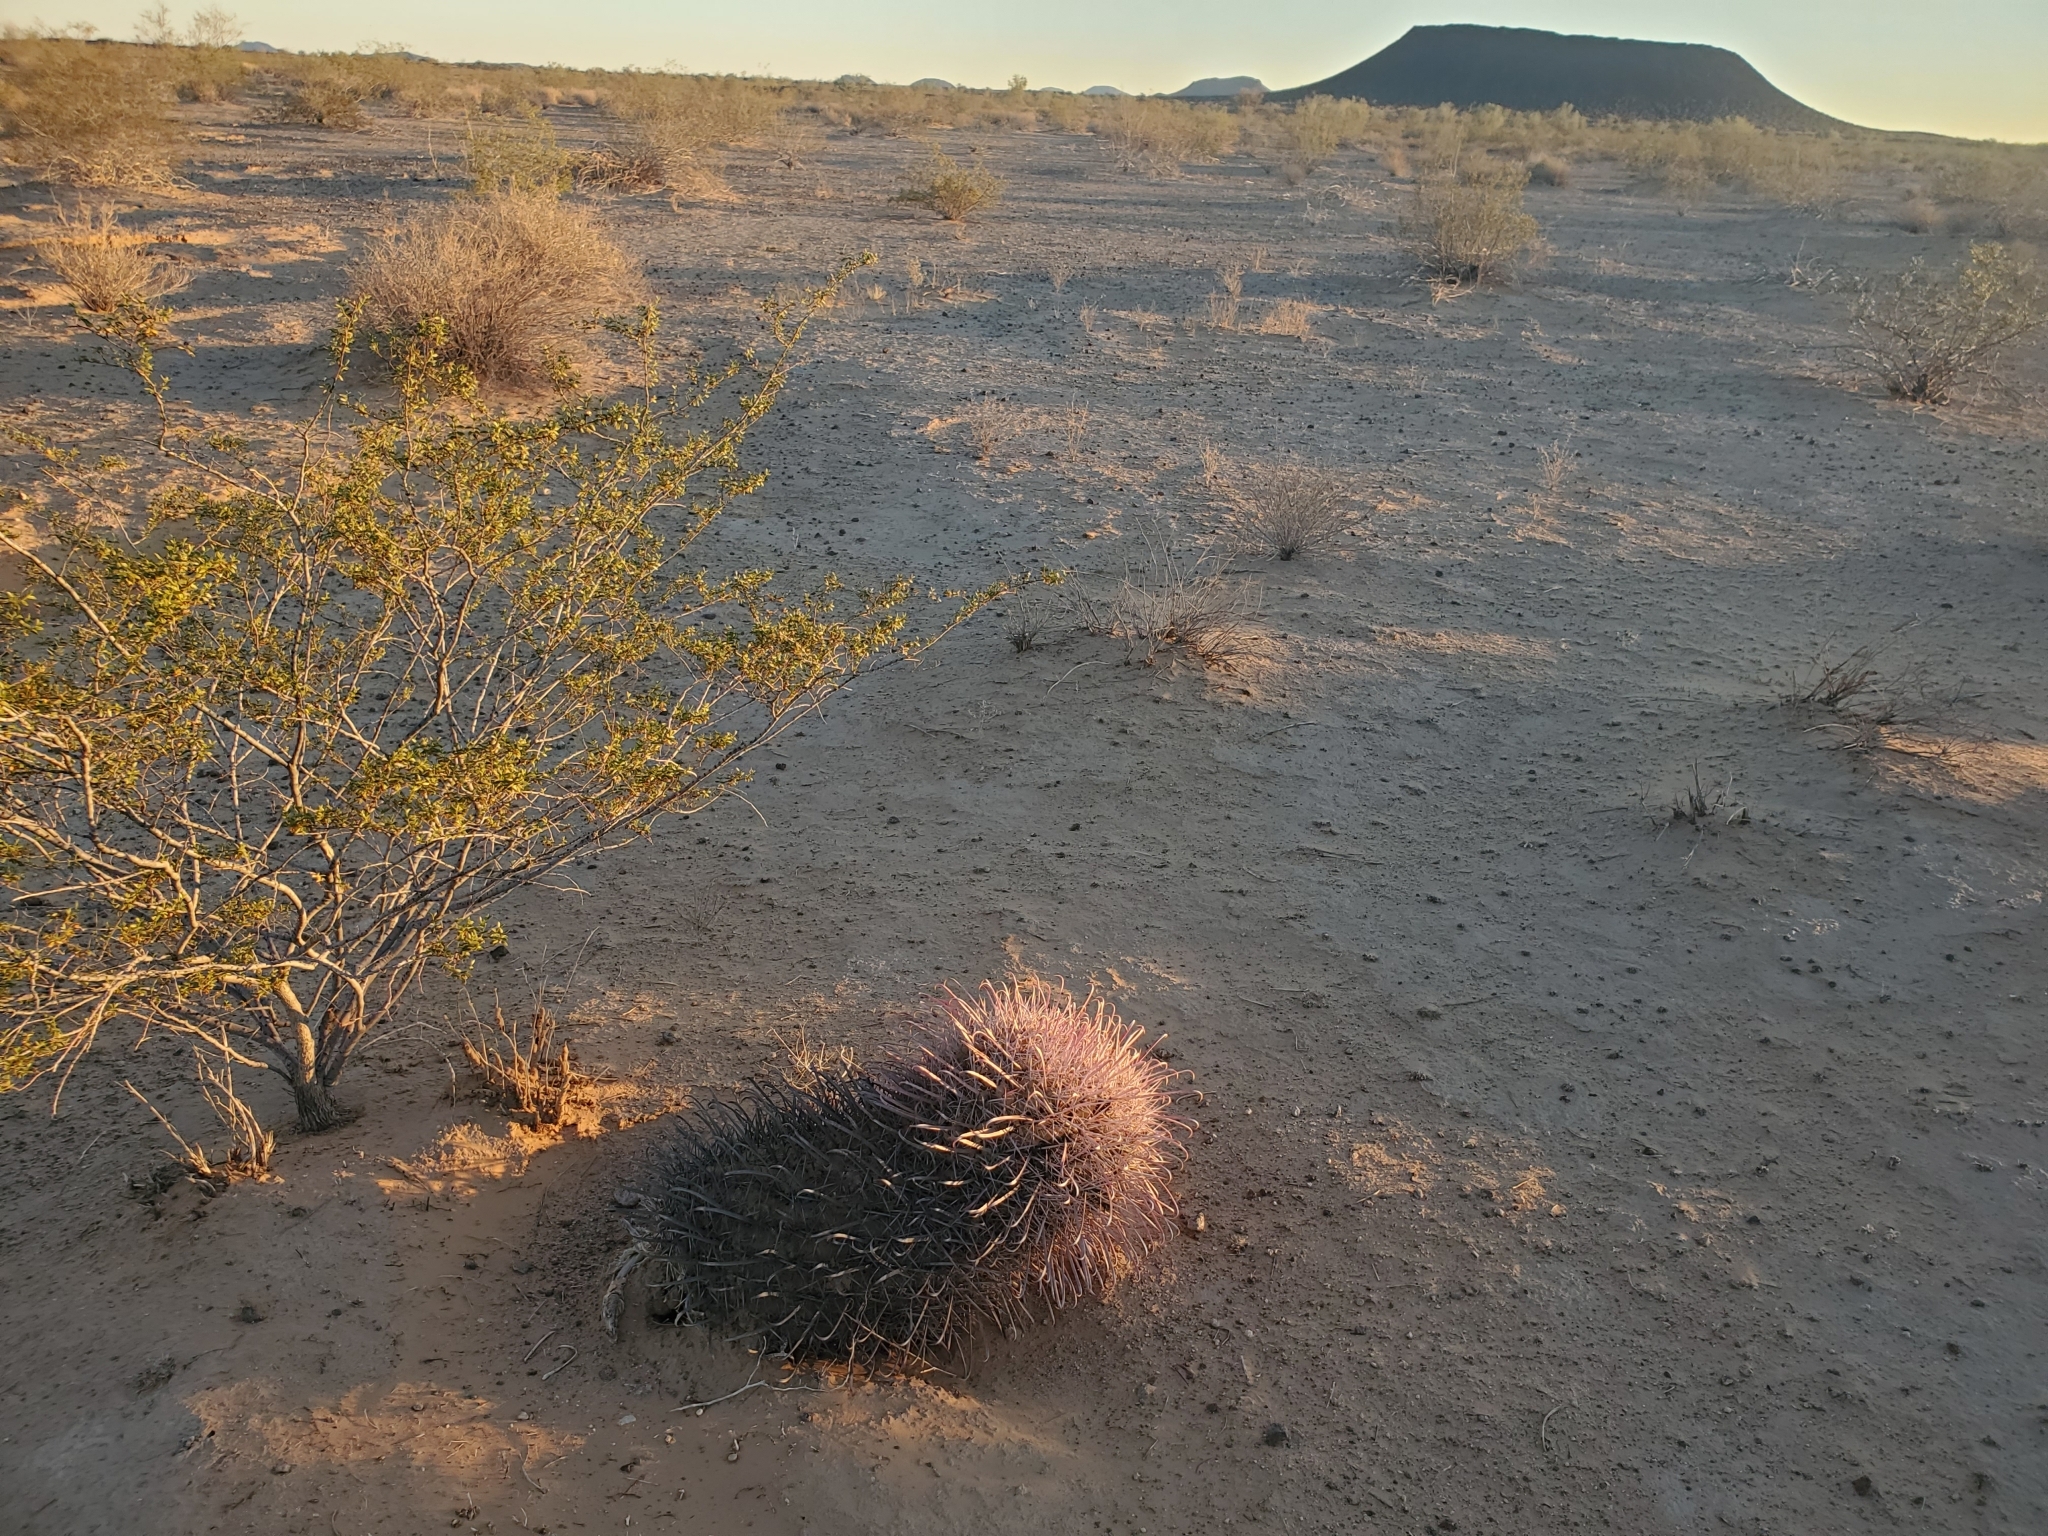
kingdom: Plantae
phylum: Tracheophyta
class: Magnoliopsida
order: Caryophyllales
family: Cactaceae
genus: Ferocactus
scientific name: Ferocactus cylindraceus
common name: California barrel cactus
